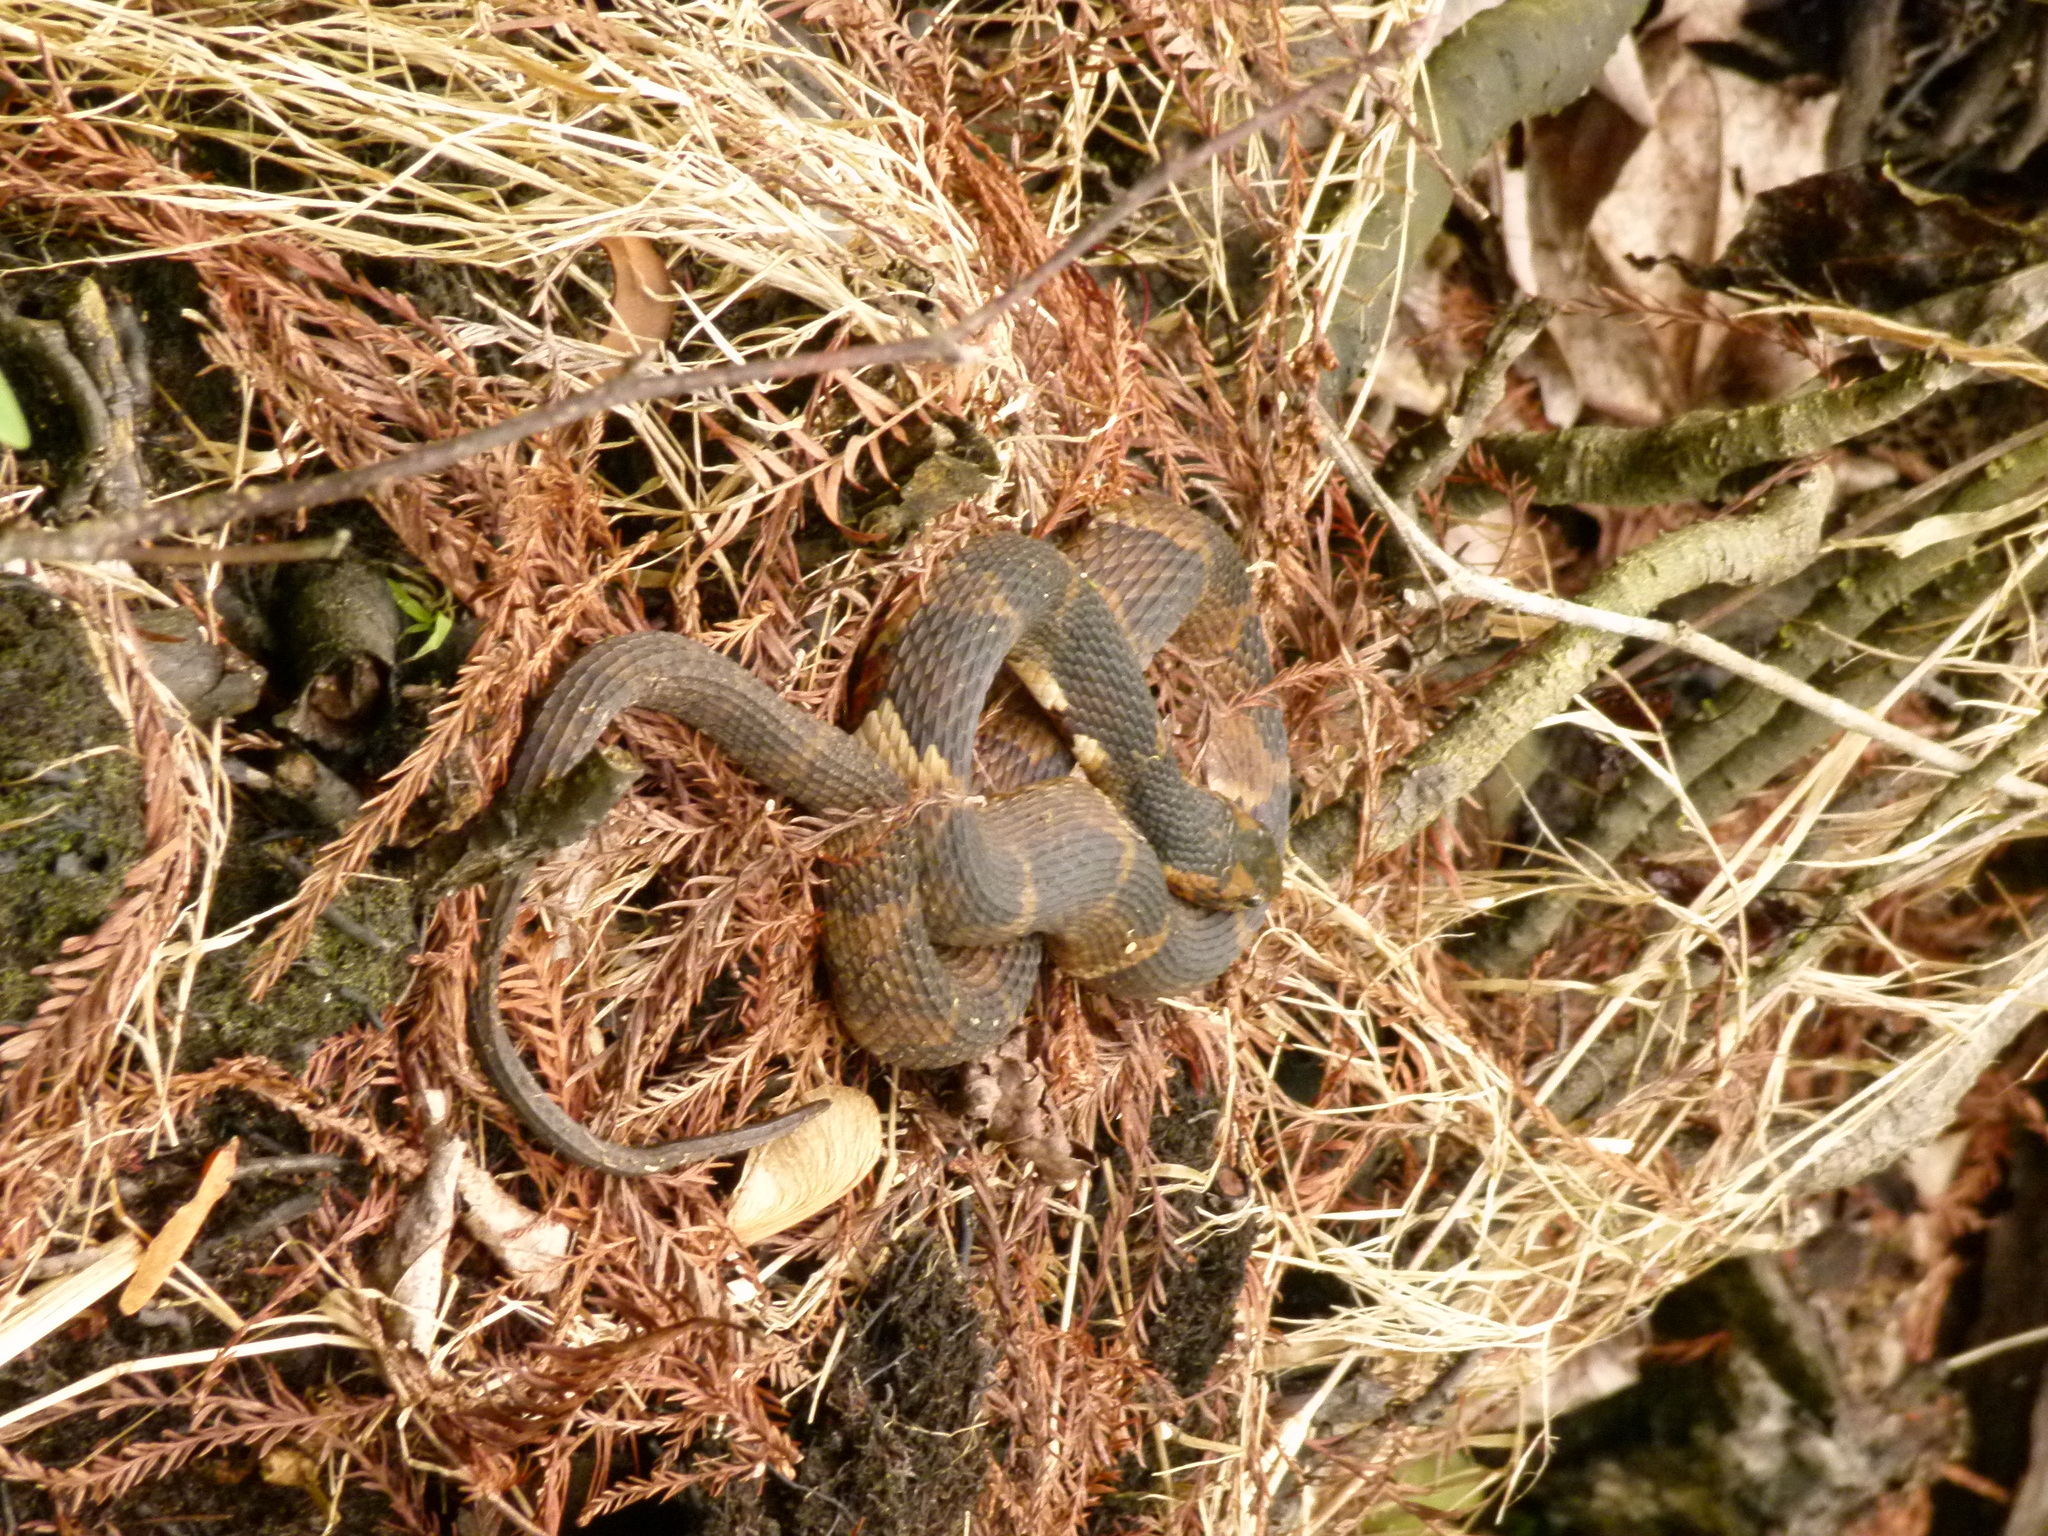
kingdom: Animalia
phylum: Chordata
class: Squamata
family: Colubridae
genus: Nerodia
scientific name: Nerodia fasciata
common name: Southern water snake
